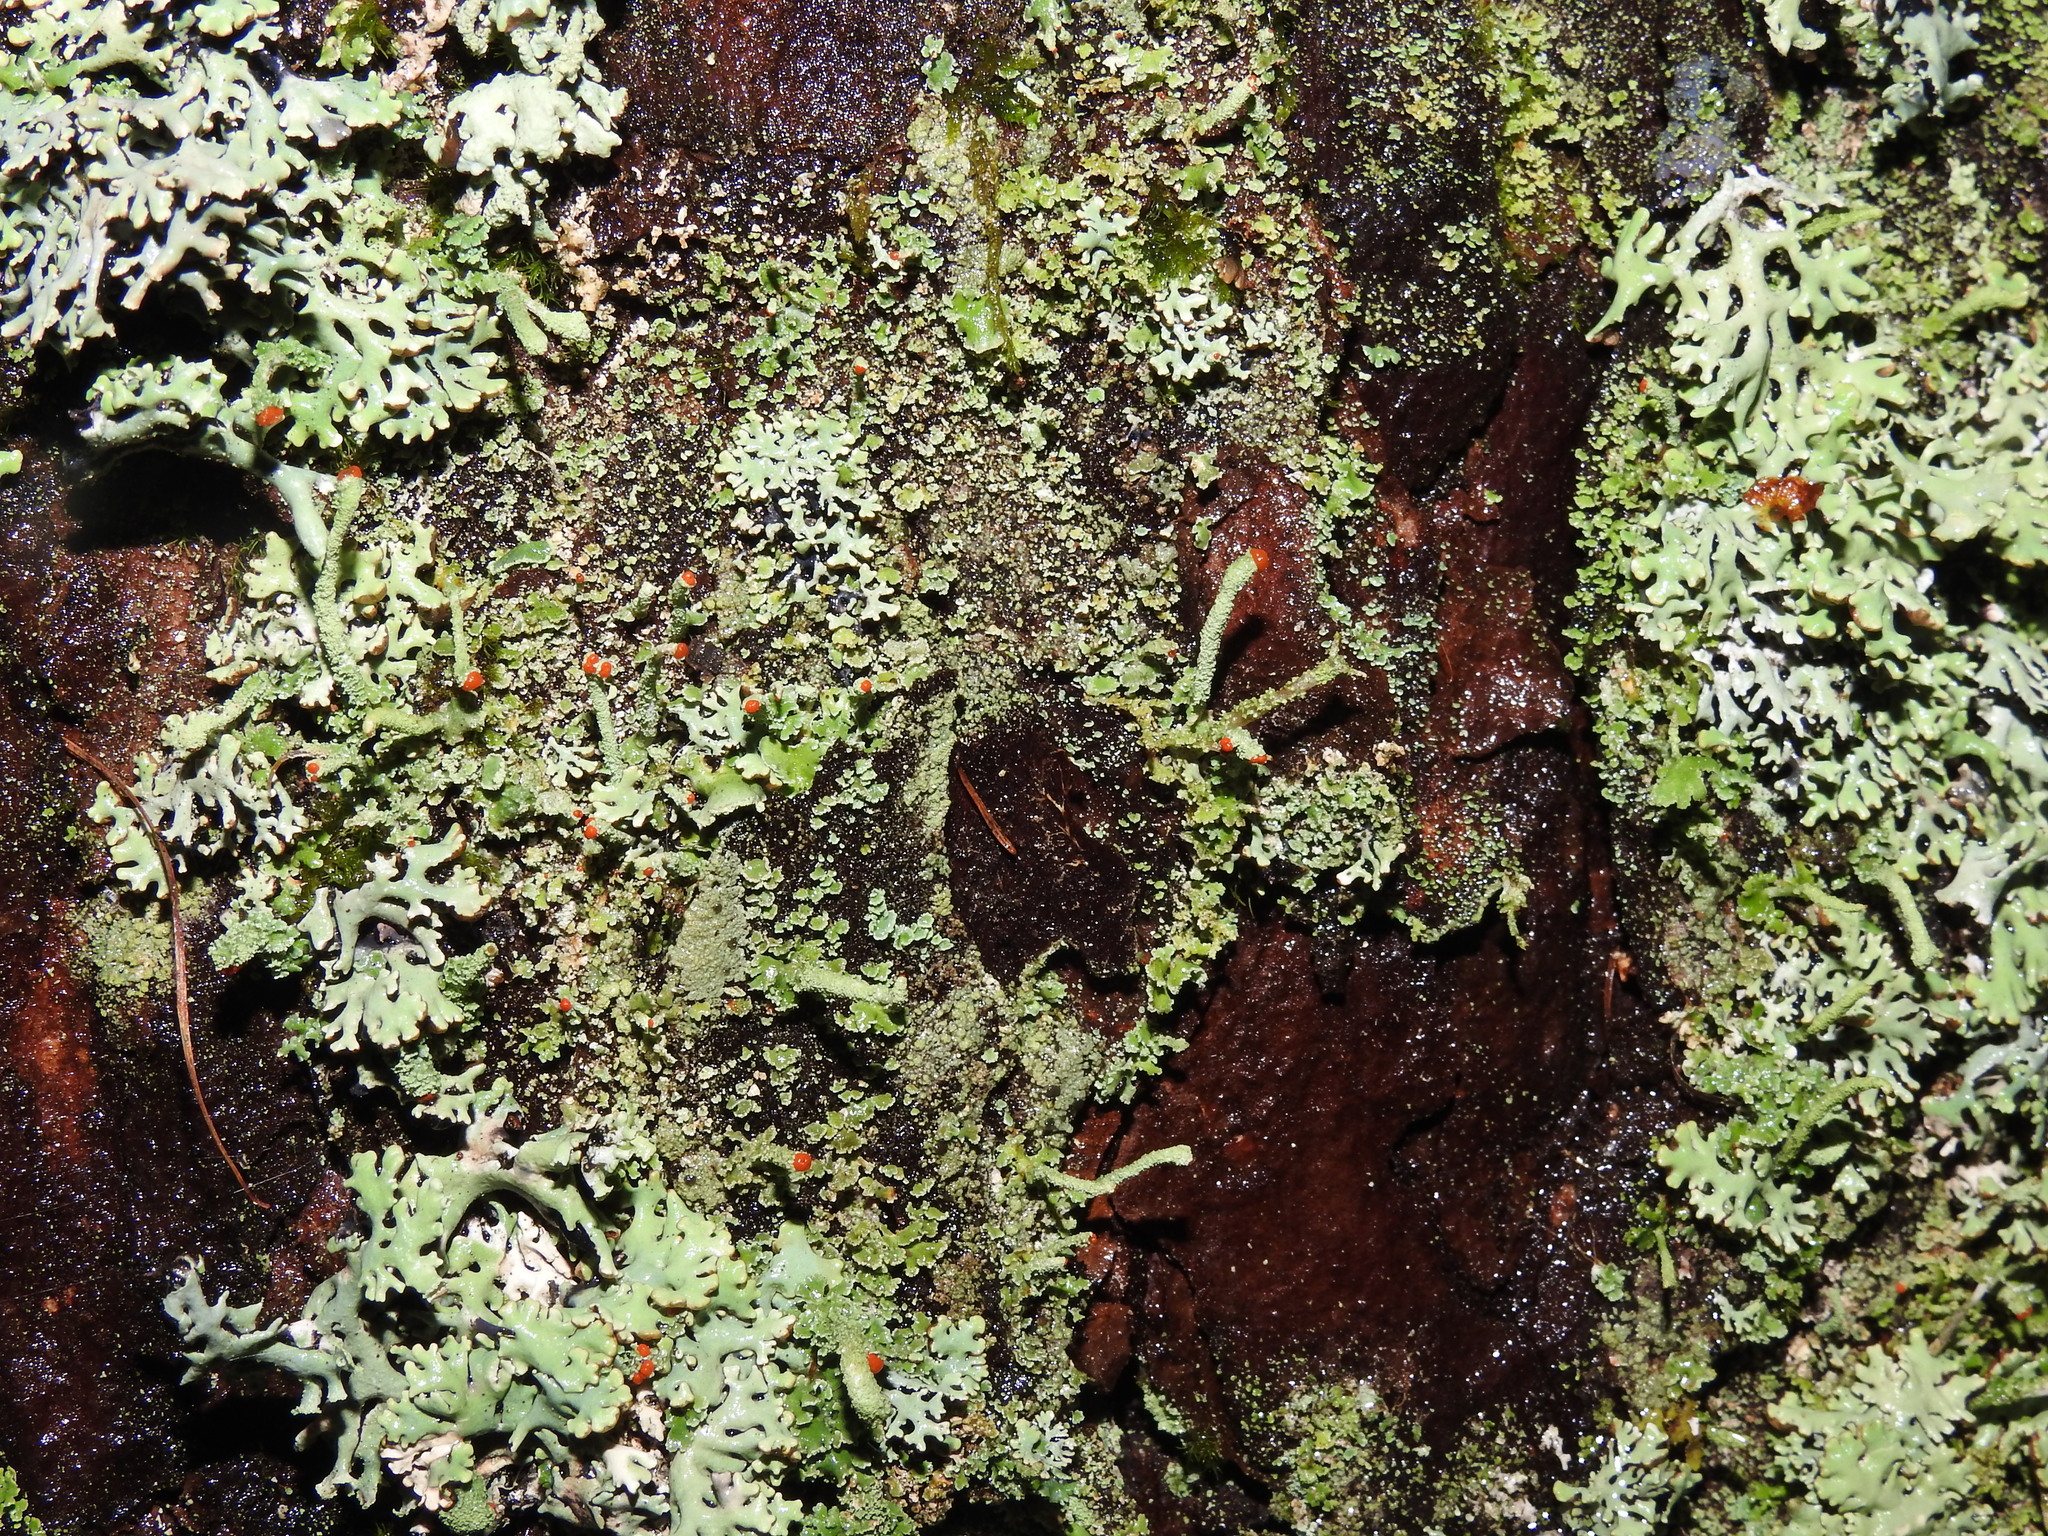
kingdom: Fungi
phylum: Ascomycota
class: Lecanoromycetes
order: Lecanorales
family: Cladoniaceae
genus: Cladonia
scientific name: Cladonia macilenta
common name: Lipstick powderhorn
